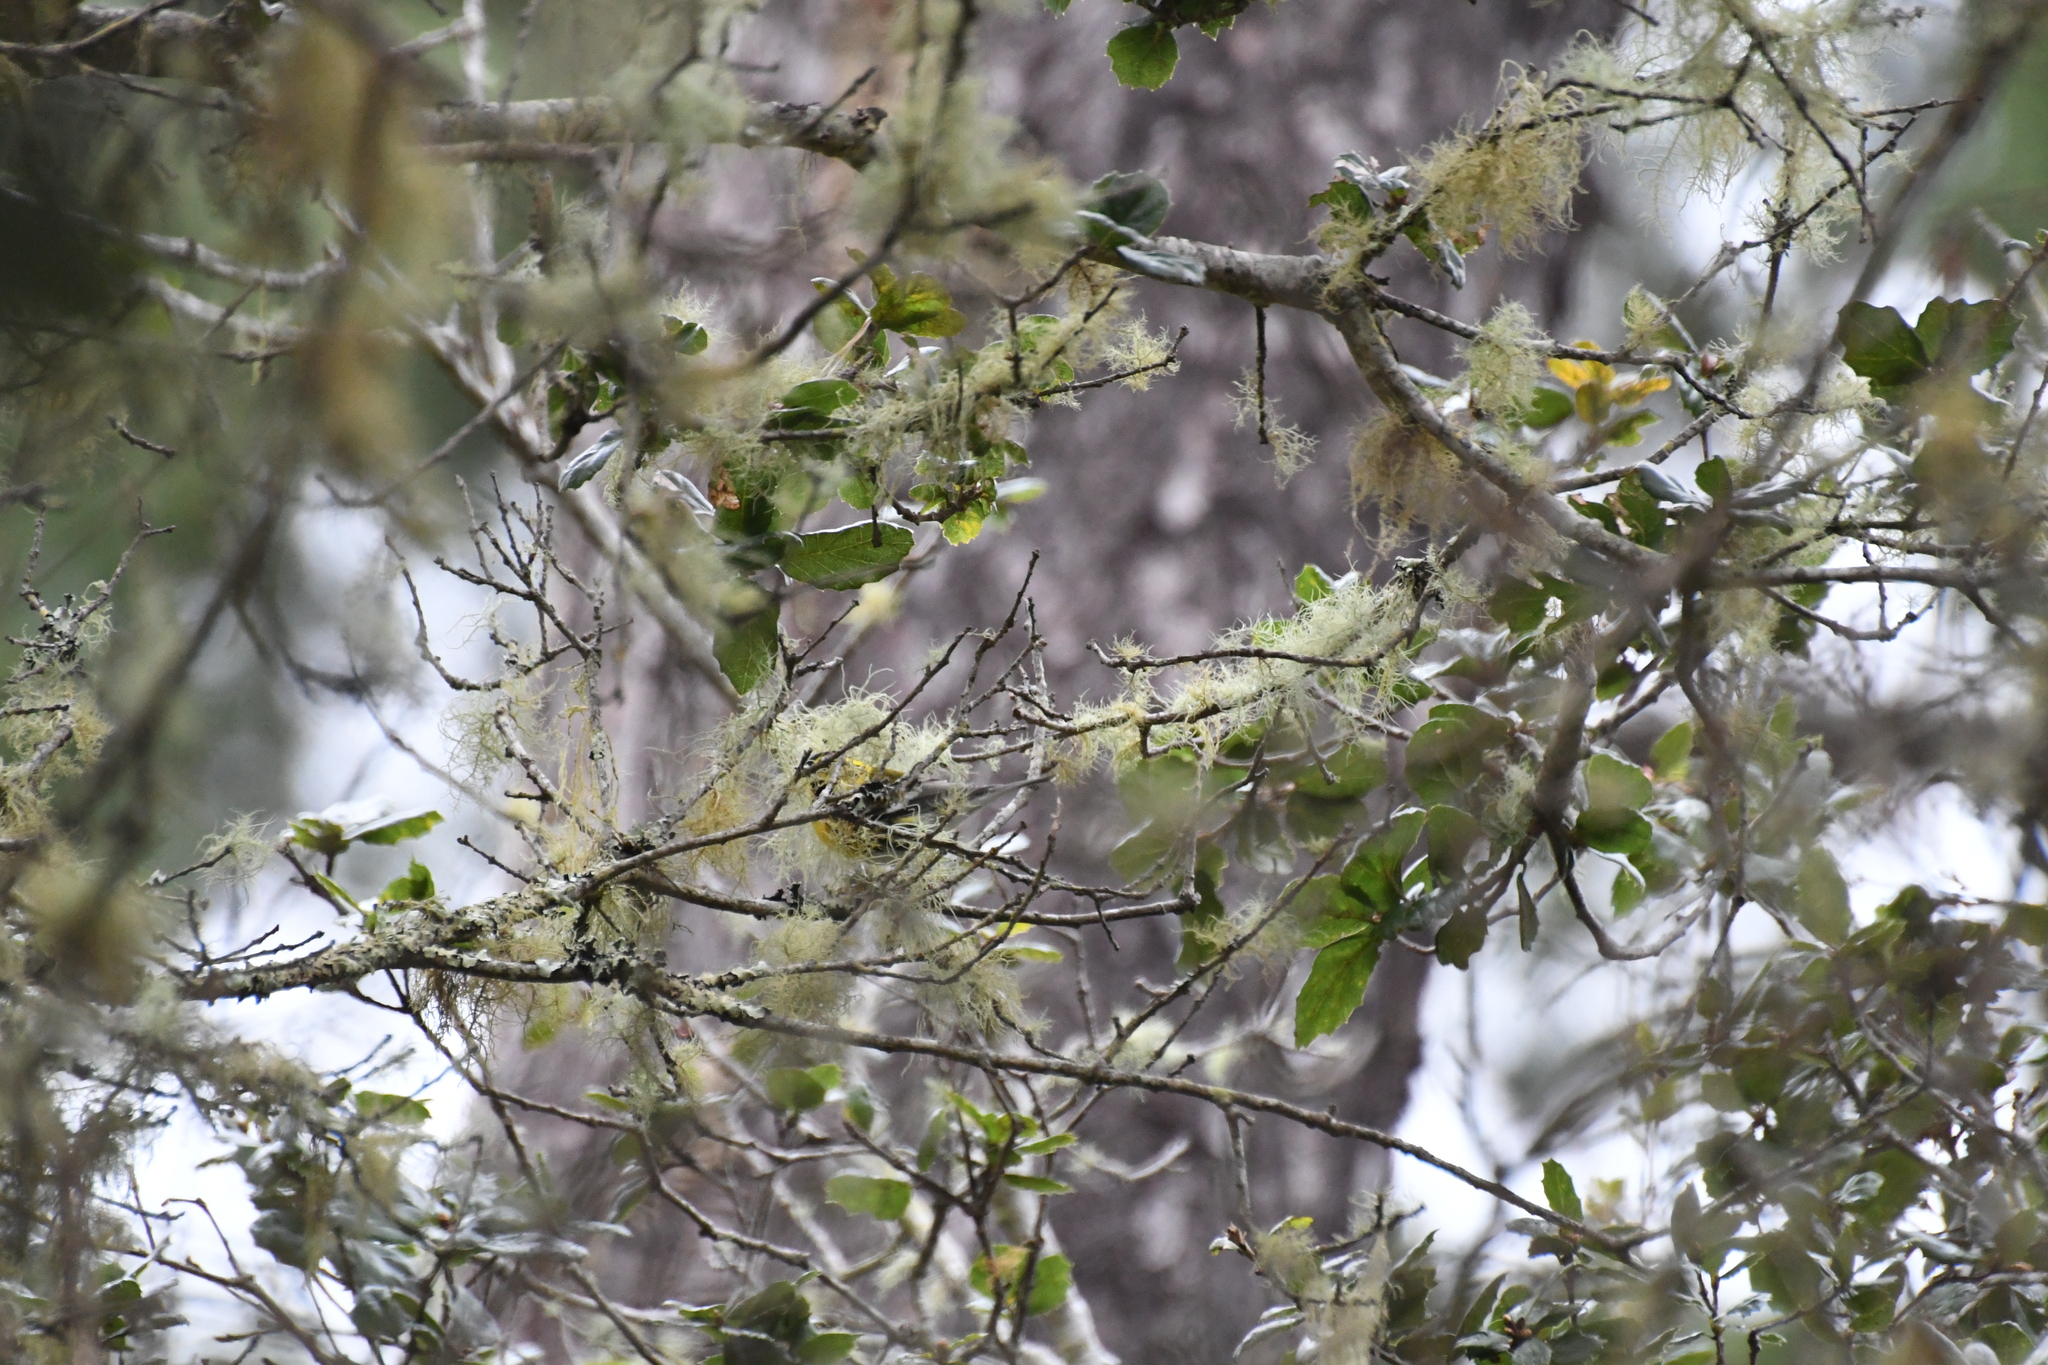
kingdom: Animalia
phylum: Chordata
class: Aves
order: Passeriformes
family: Parulidae
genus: Setophaga
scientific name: Setophaga townsendi
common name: Townsend's warbler
